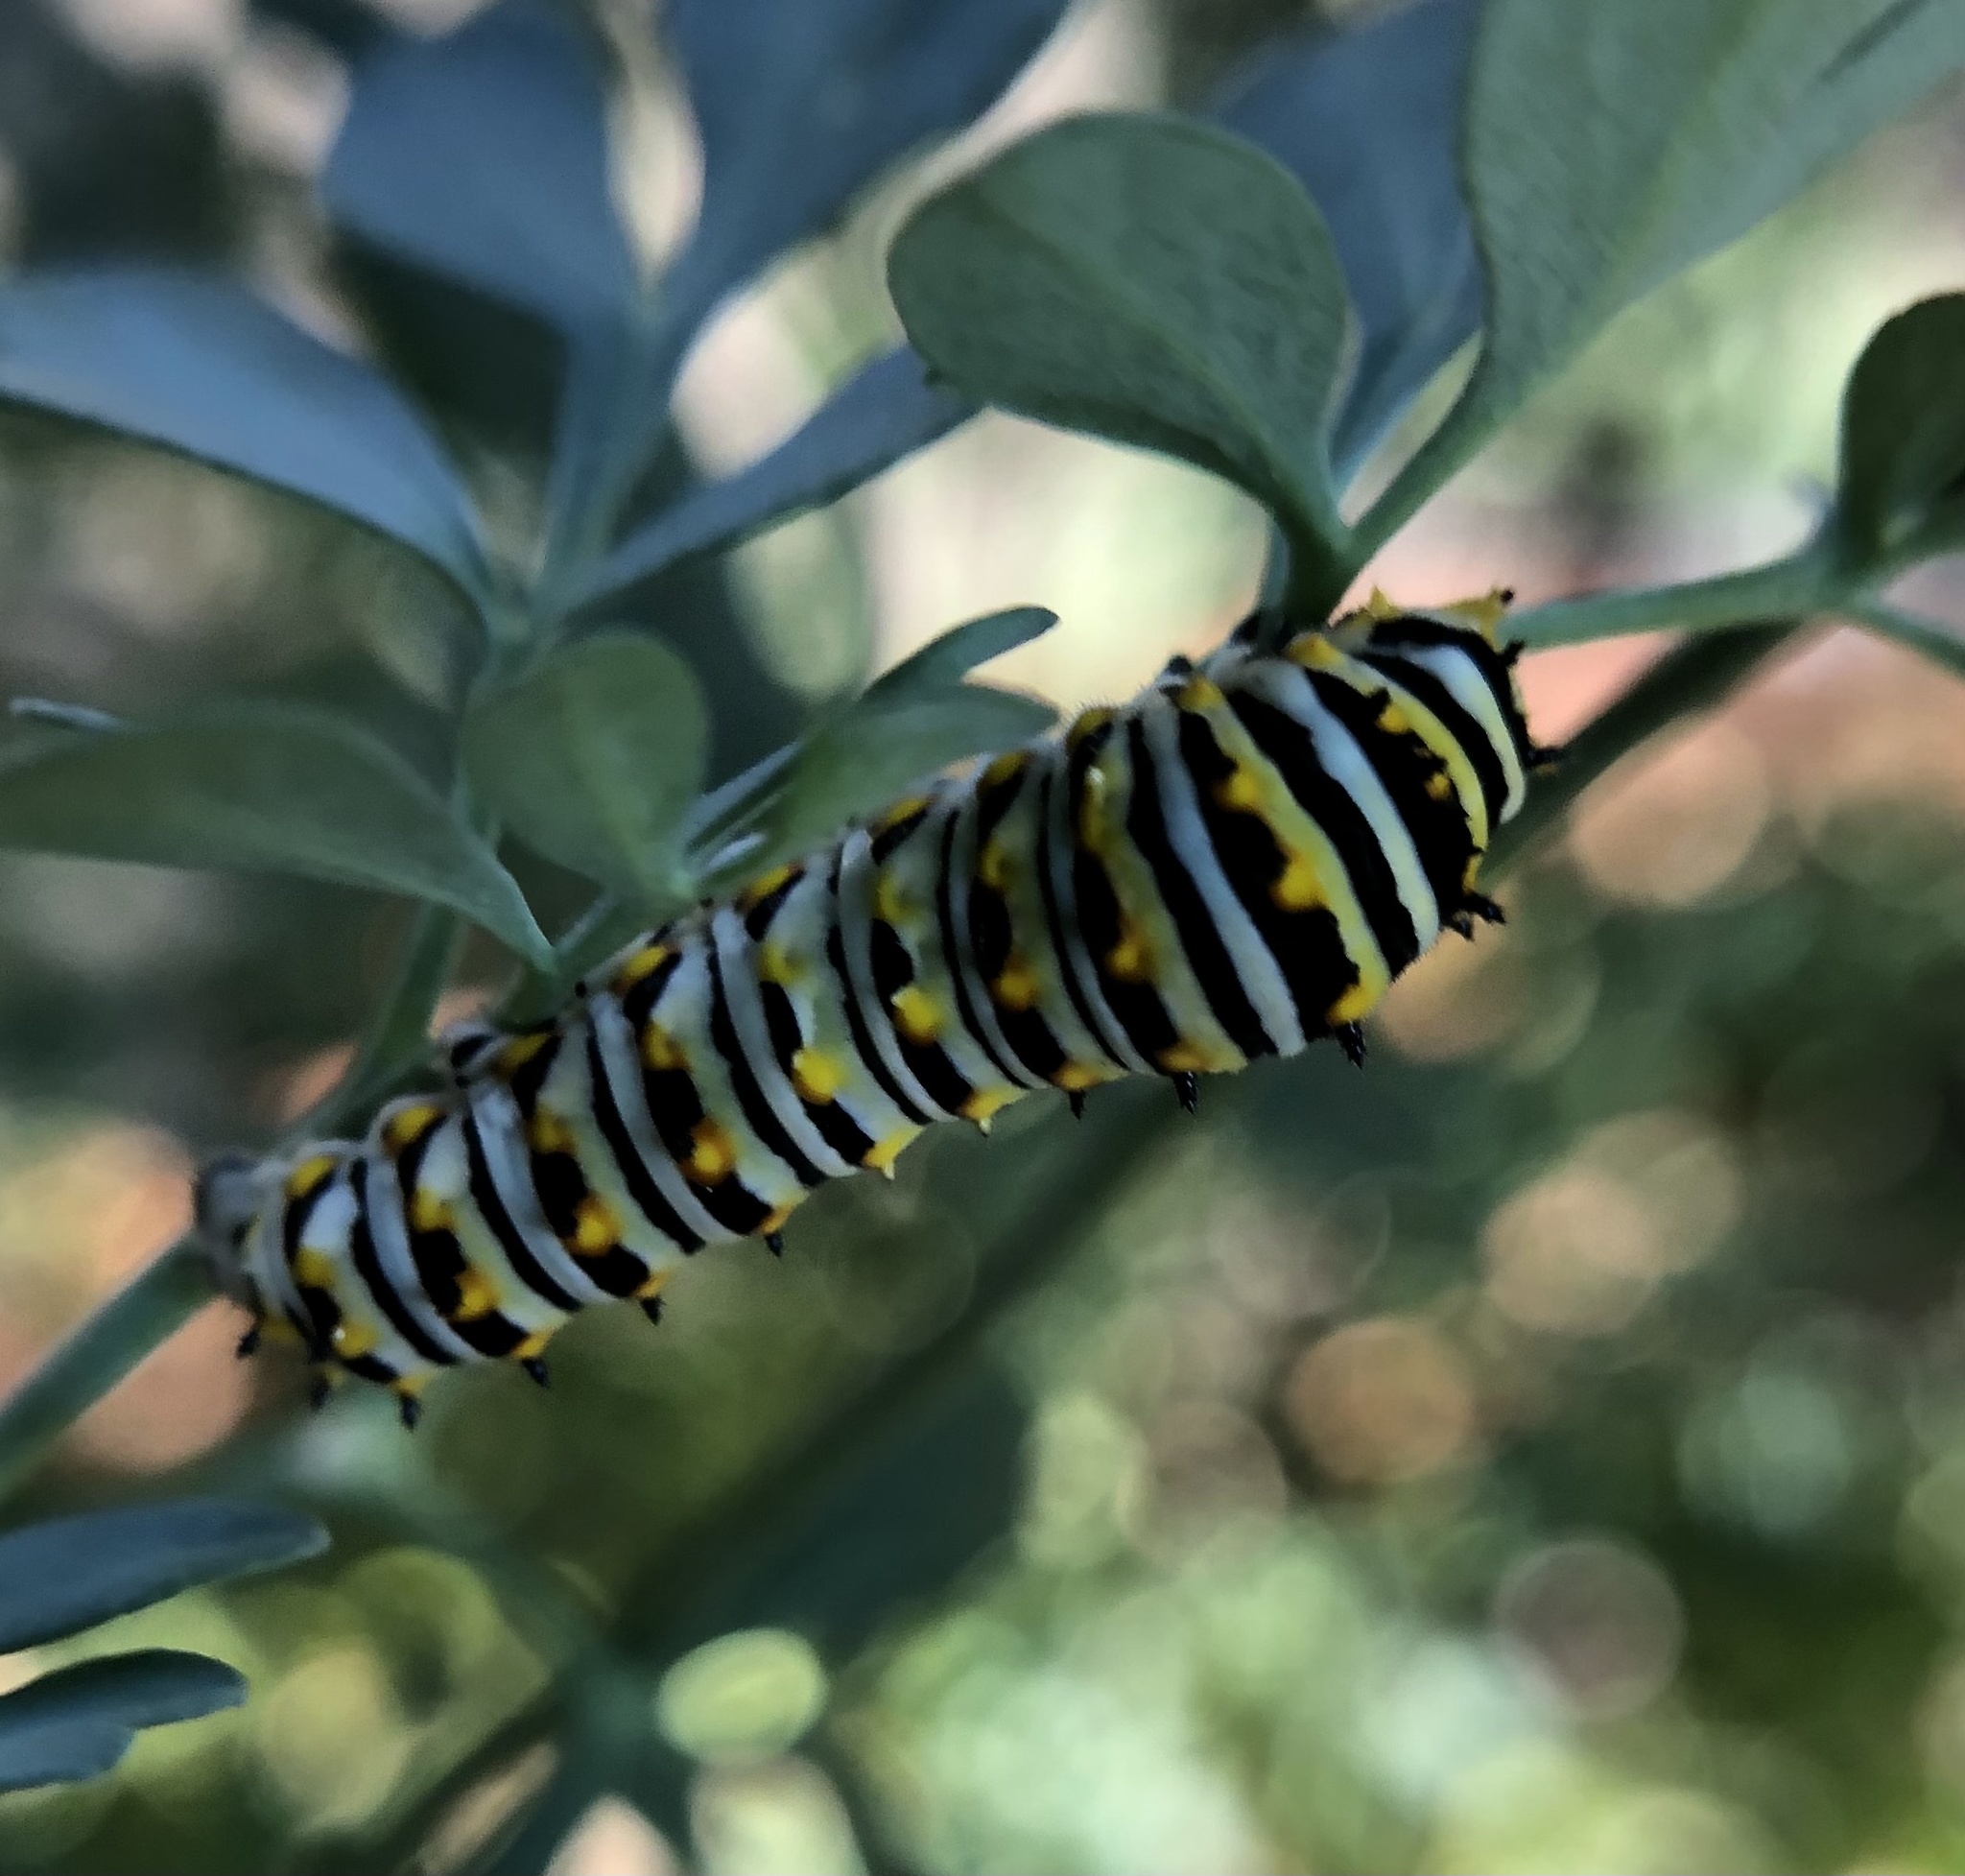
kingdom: Animalia
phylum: Arthropoda
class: Insecta
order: Lepidoptera
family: Papilionidae
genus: Papilio
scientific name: Papilio polyxenes
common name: Black swallowtail
